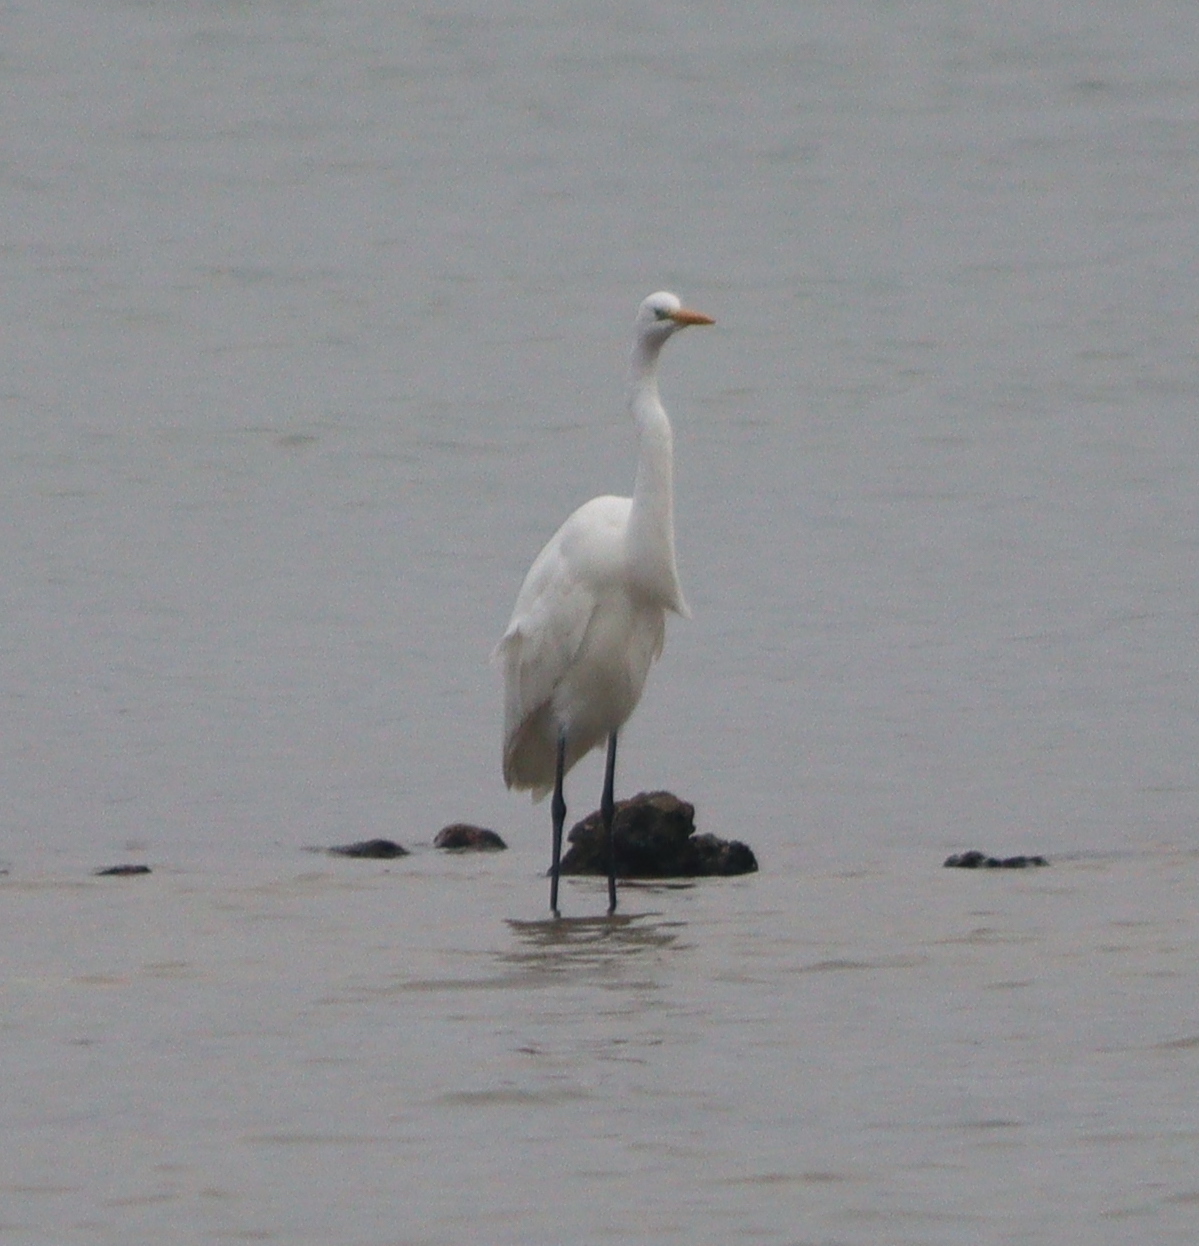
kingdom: Animalia
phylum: Chordata
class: Aves
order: Pelecaniformes
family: Ardeidae
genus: Ardea
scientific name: Ardea alba
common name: Great egret
